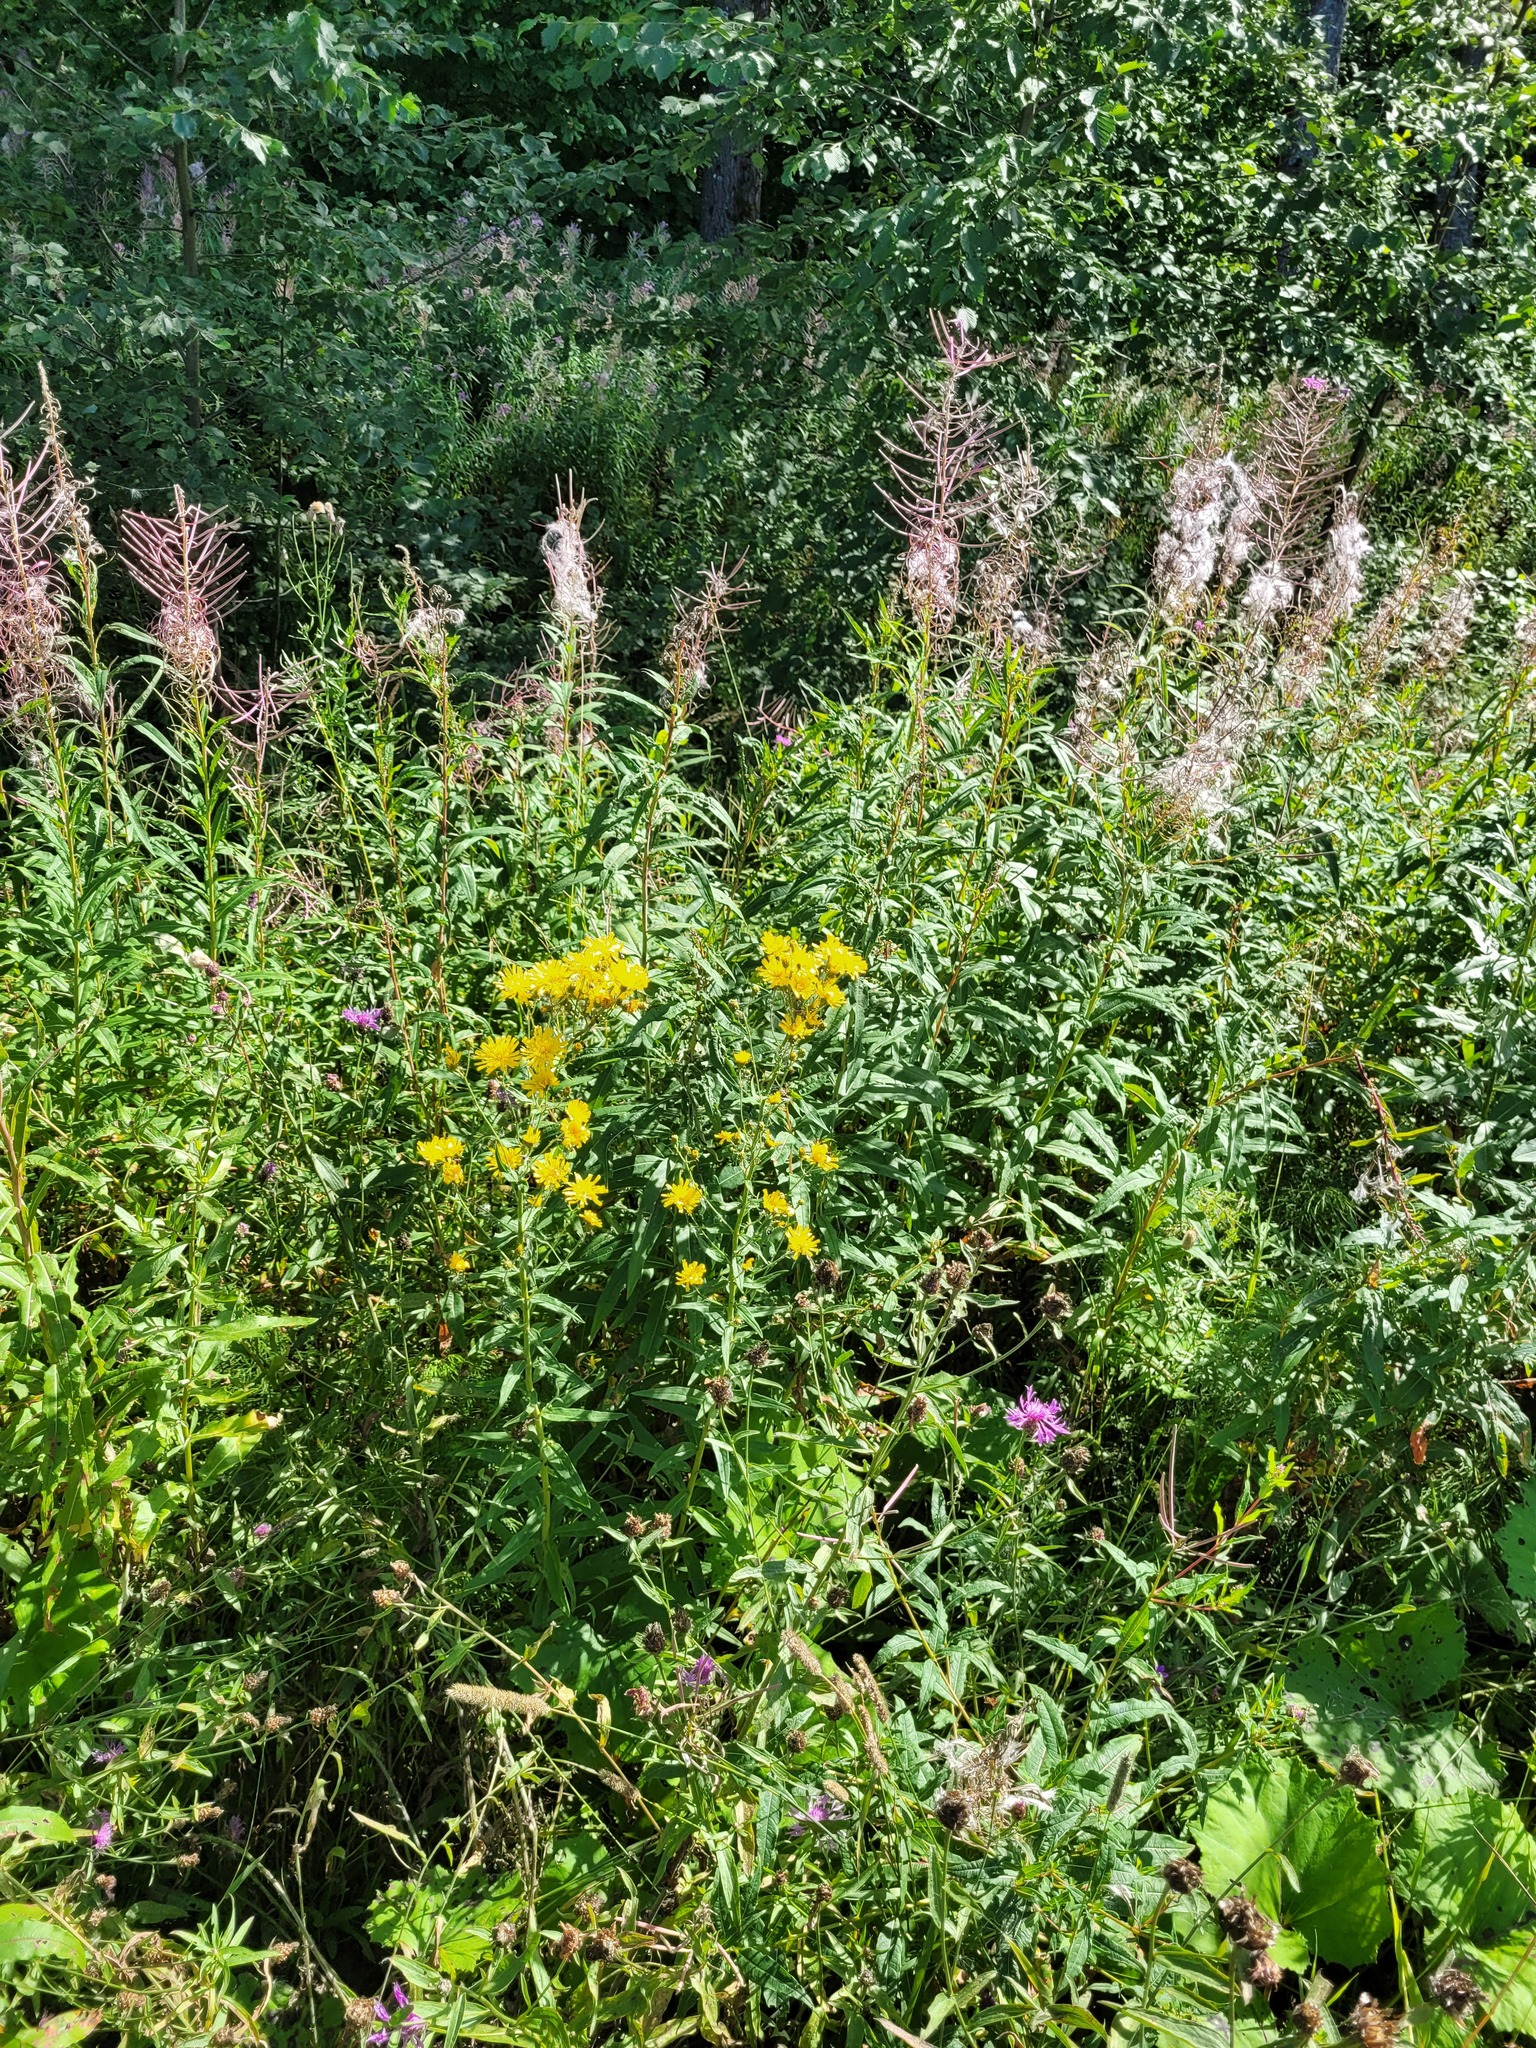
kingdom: Plantae
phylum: Tracheophyta
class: Magnoliopsida
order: Asterales
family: Asteraceae
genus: Hieracium
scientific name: Hieracium umbellatum
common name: Northern hawkweed
